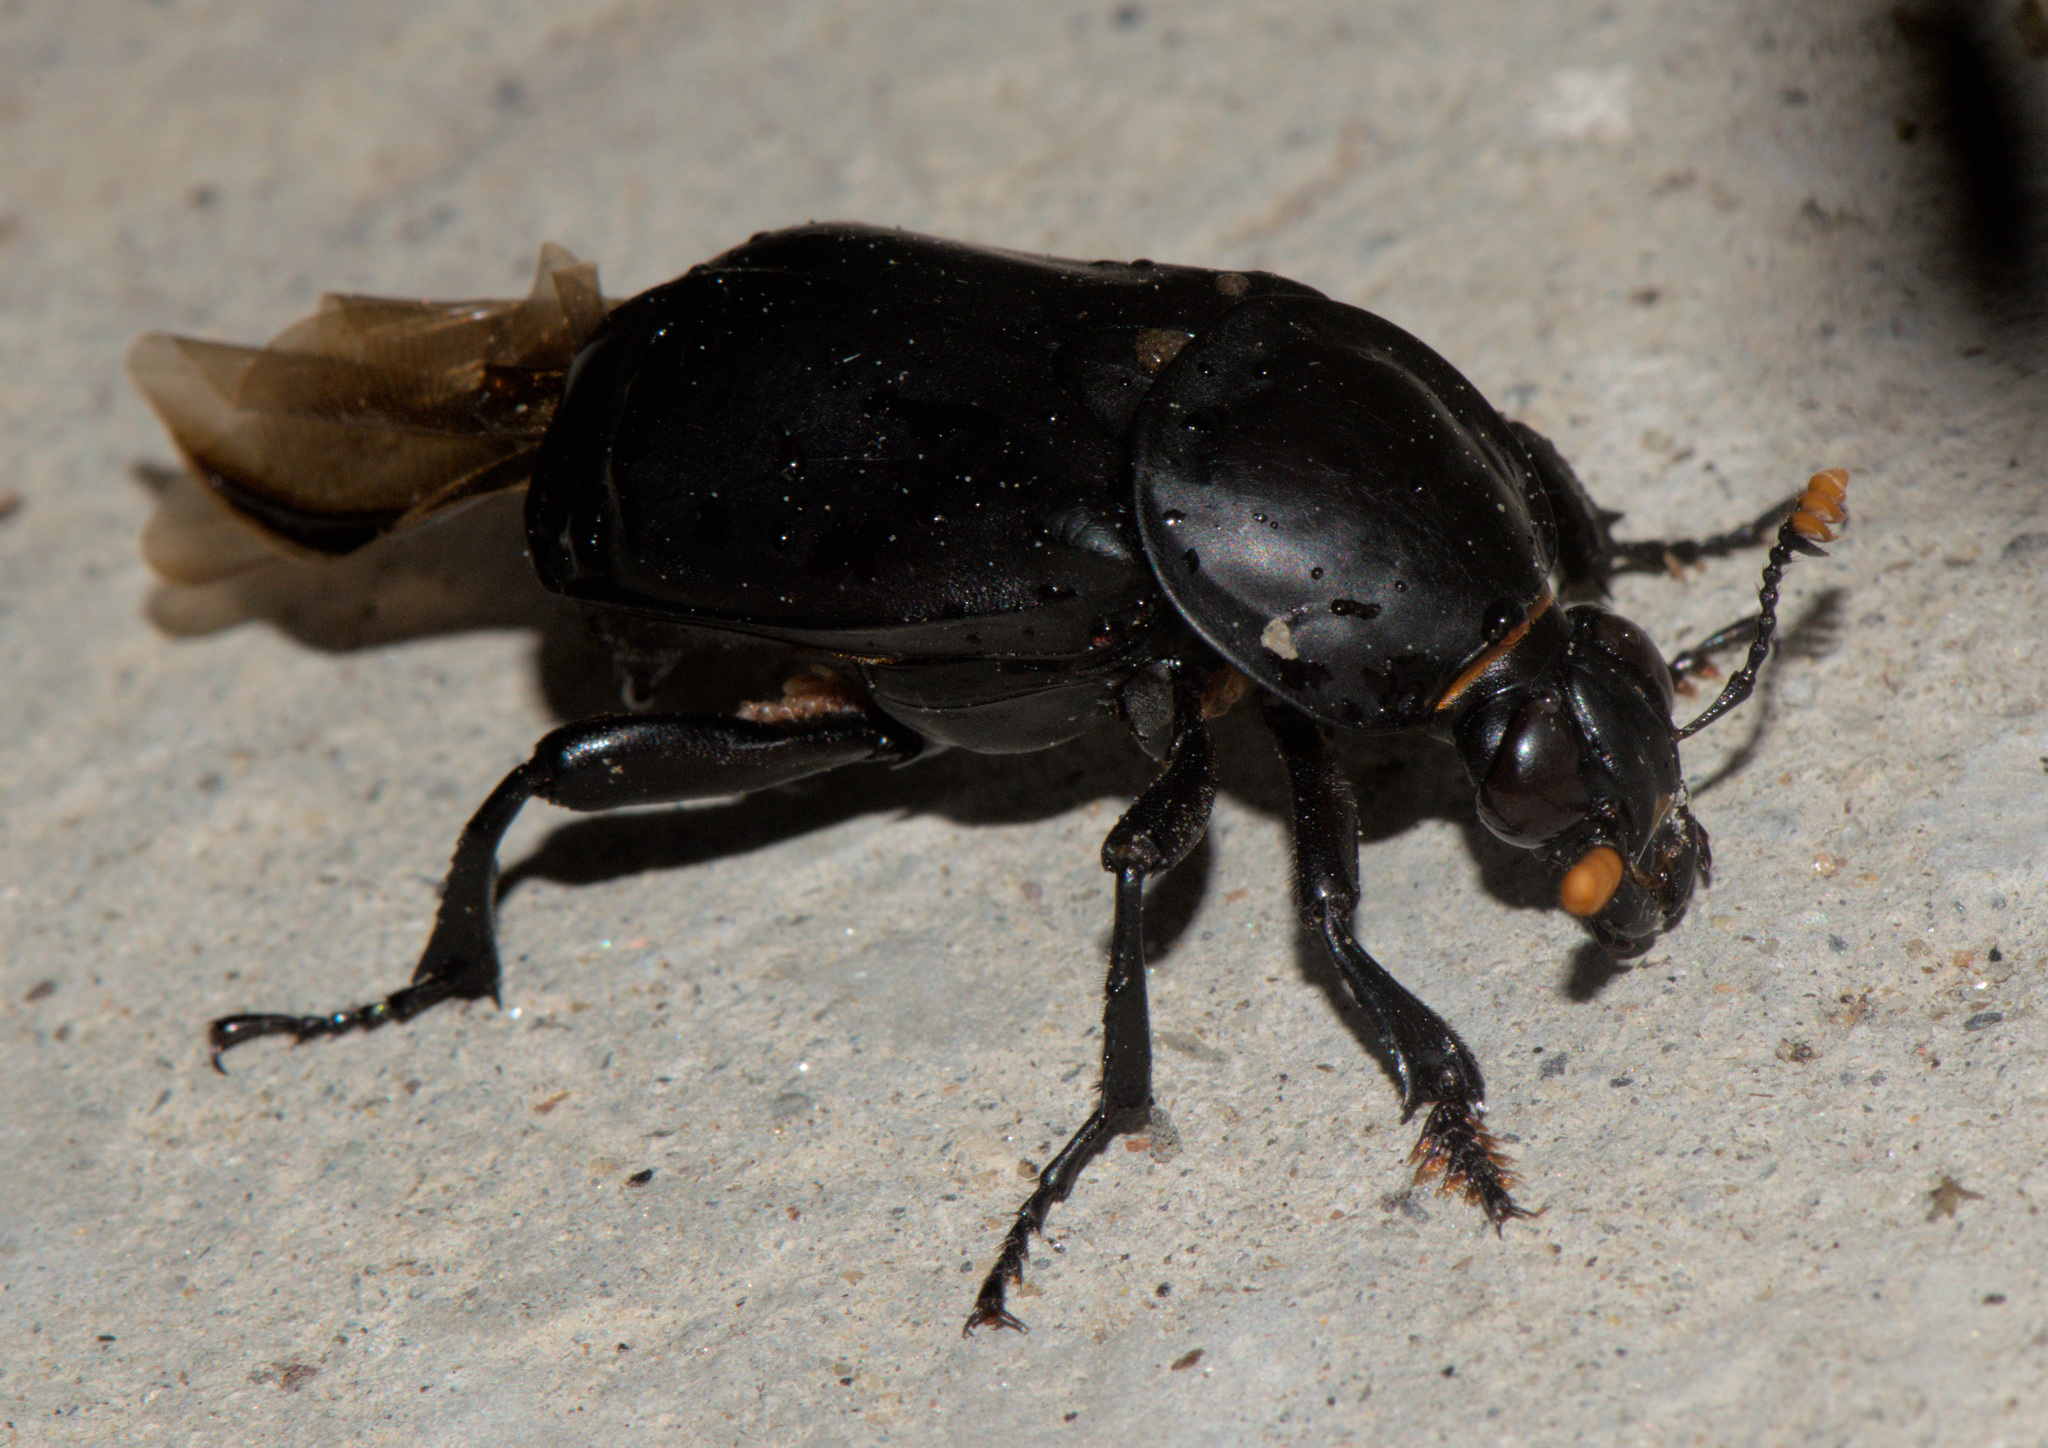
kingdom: Animalia
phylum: Arthropoda
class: Insecta
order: Coleoptera
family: Staphylinidae
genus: Nicrophorus
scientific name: Nicrophorus concolor
